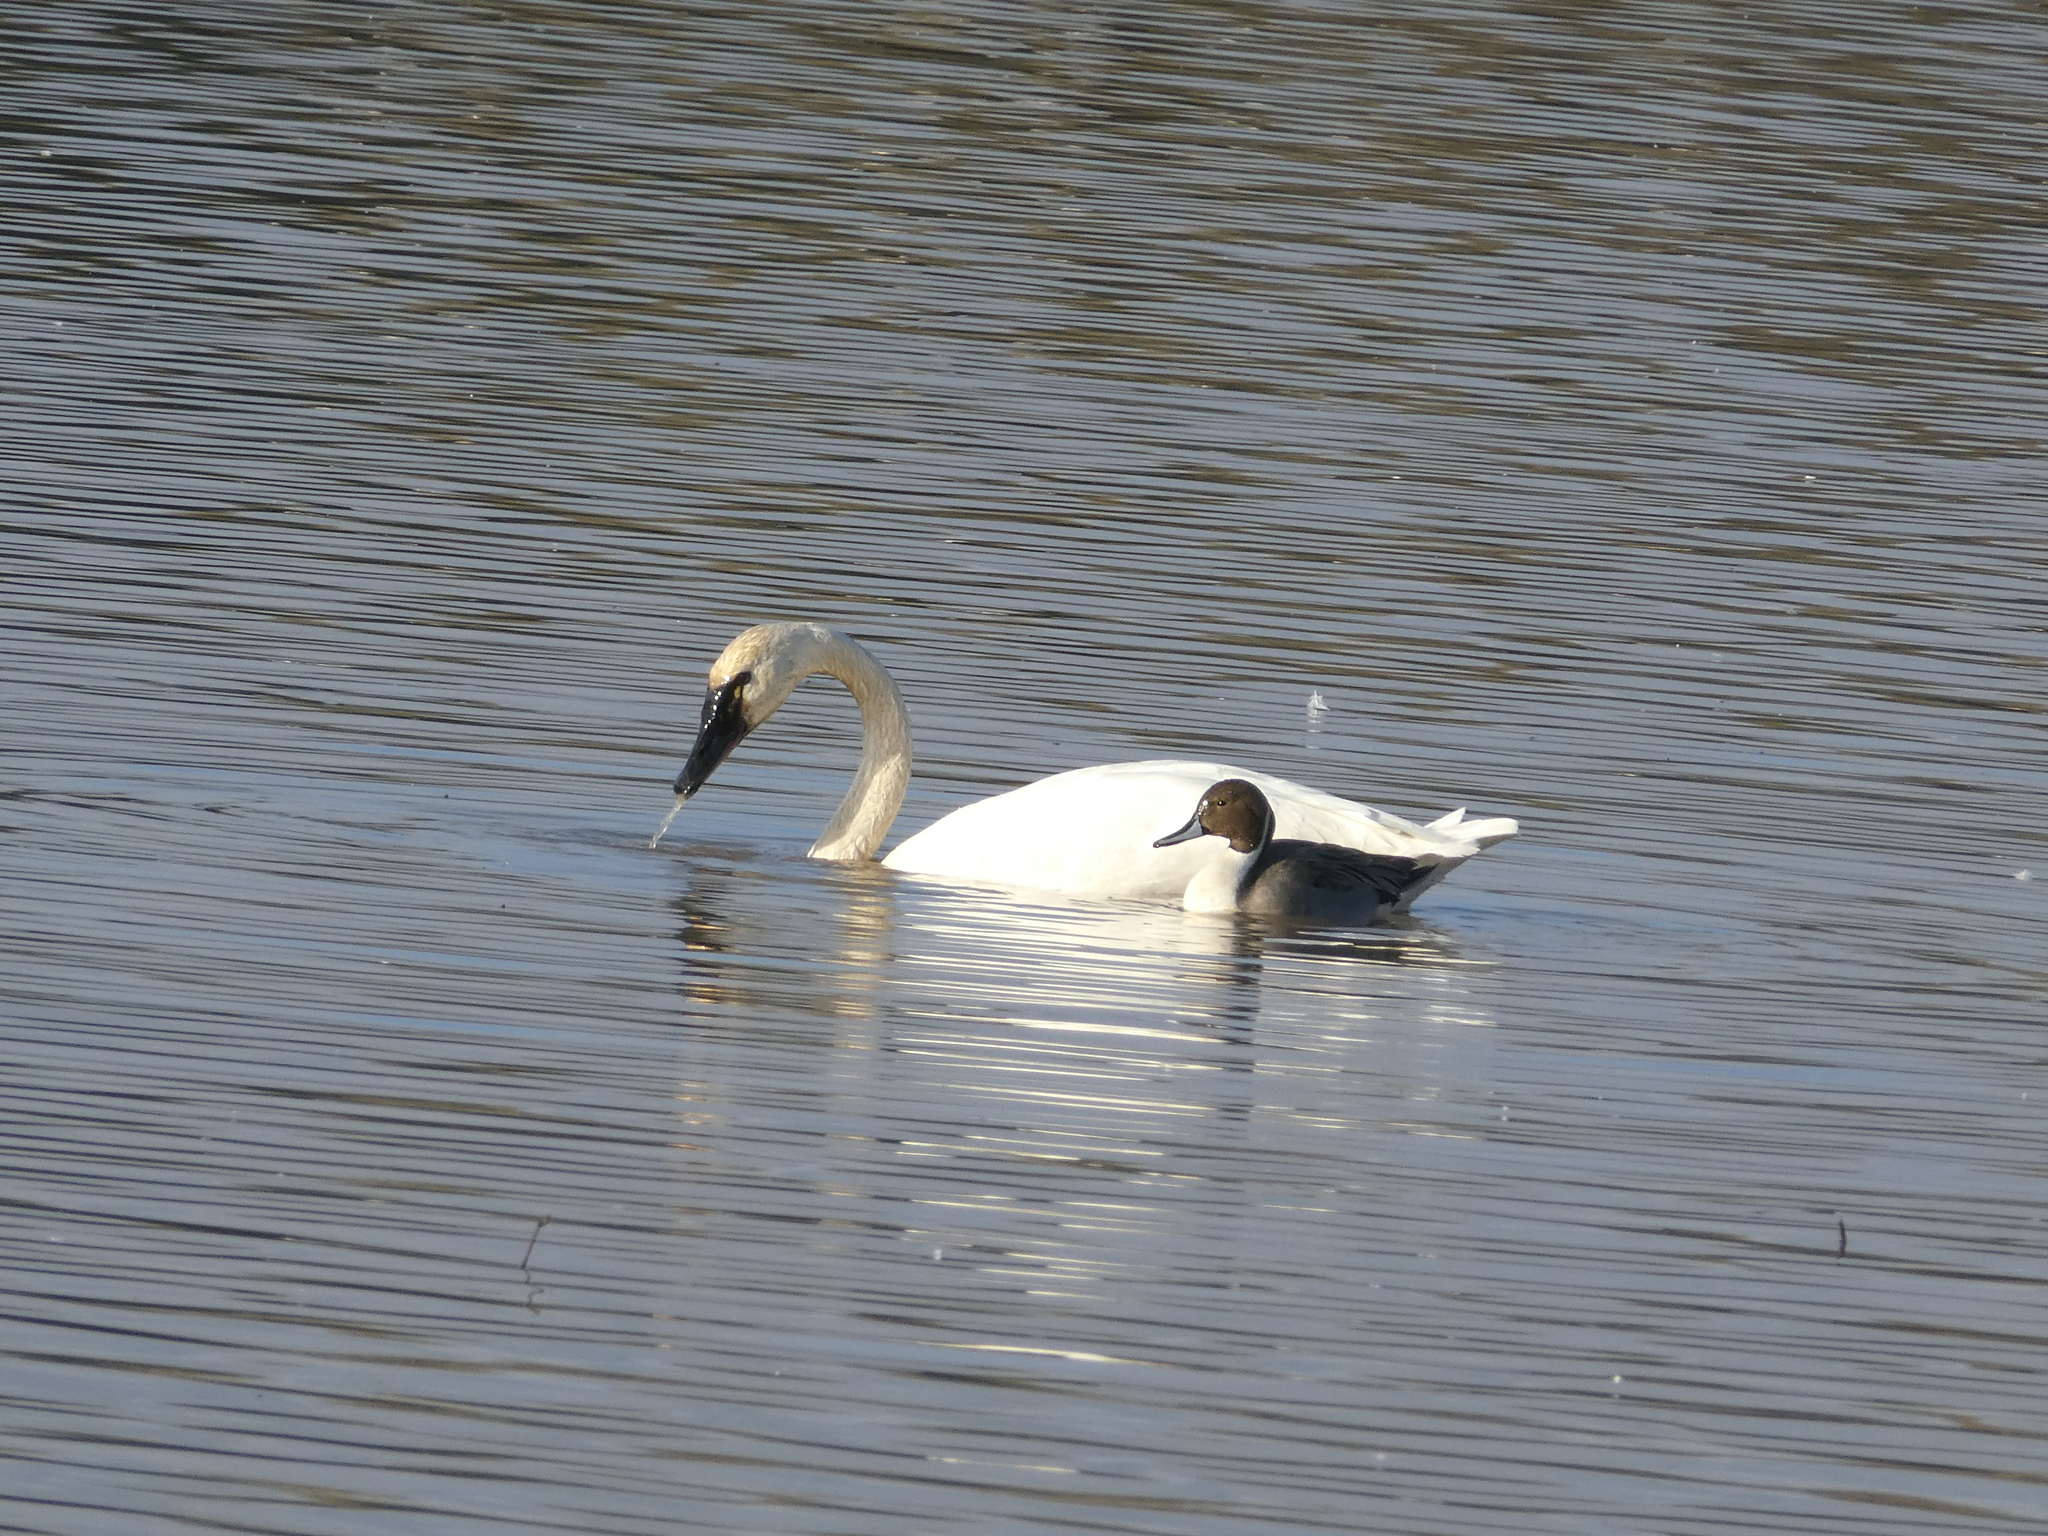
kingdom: Animalia
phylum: Chordata
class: Aves
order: Anseriformes
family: Anatidae
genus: Anas
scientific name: Anas acuta
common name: Northern pintail
